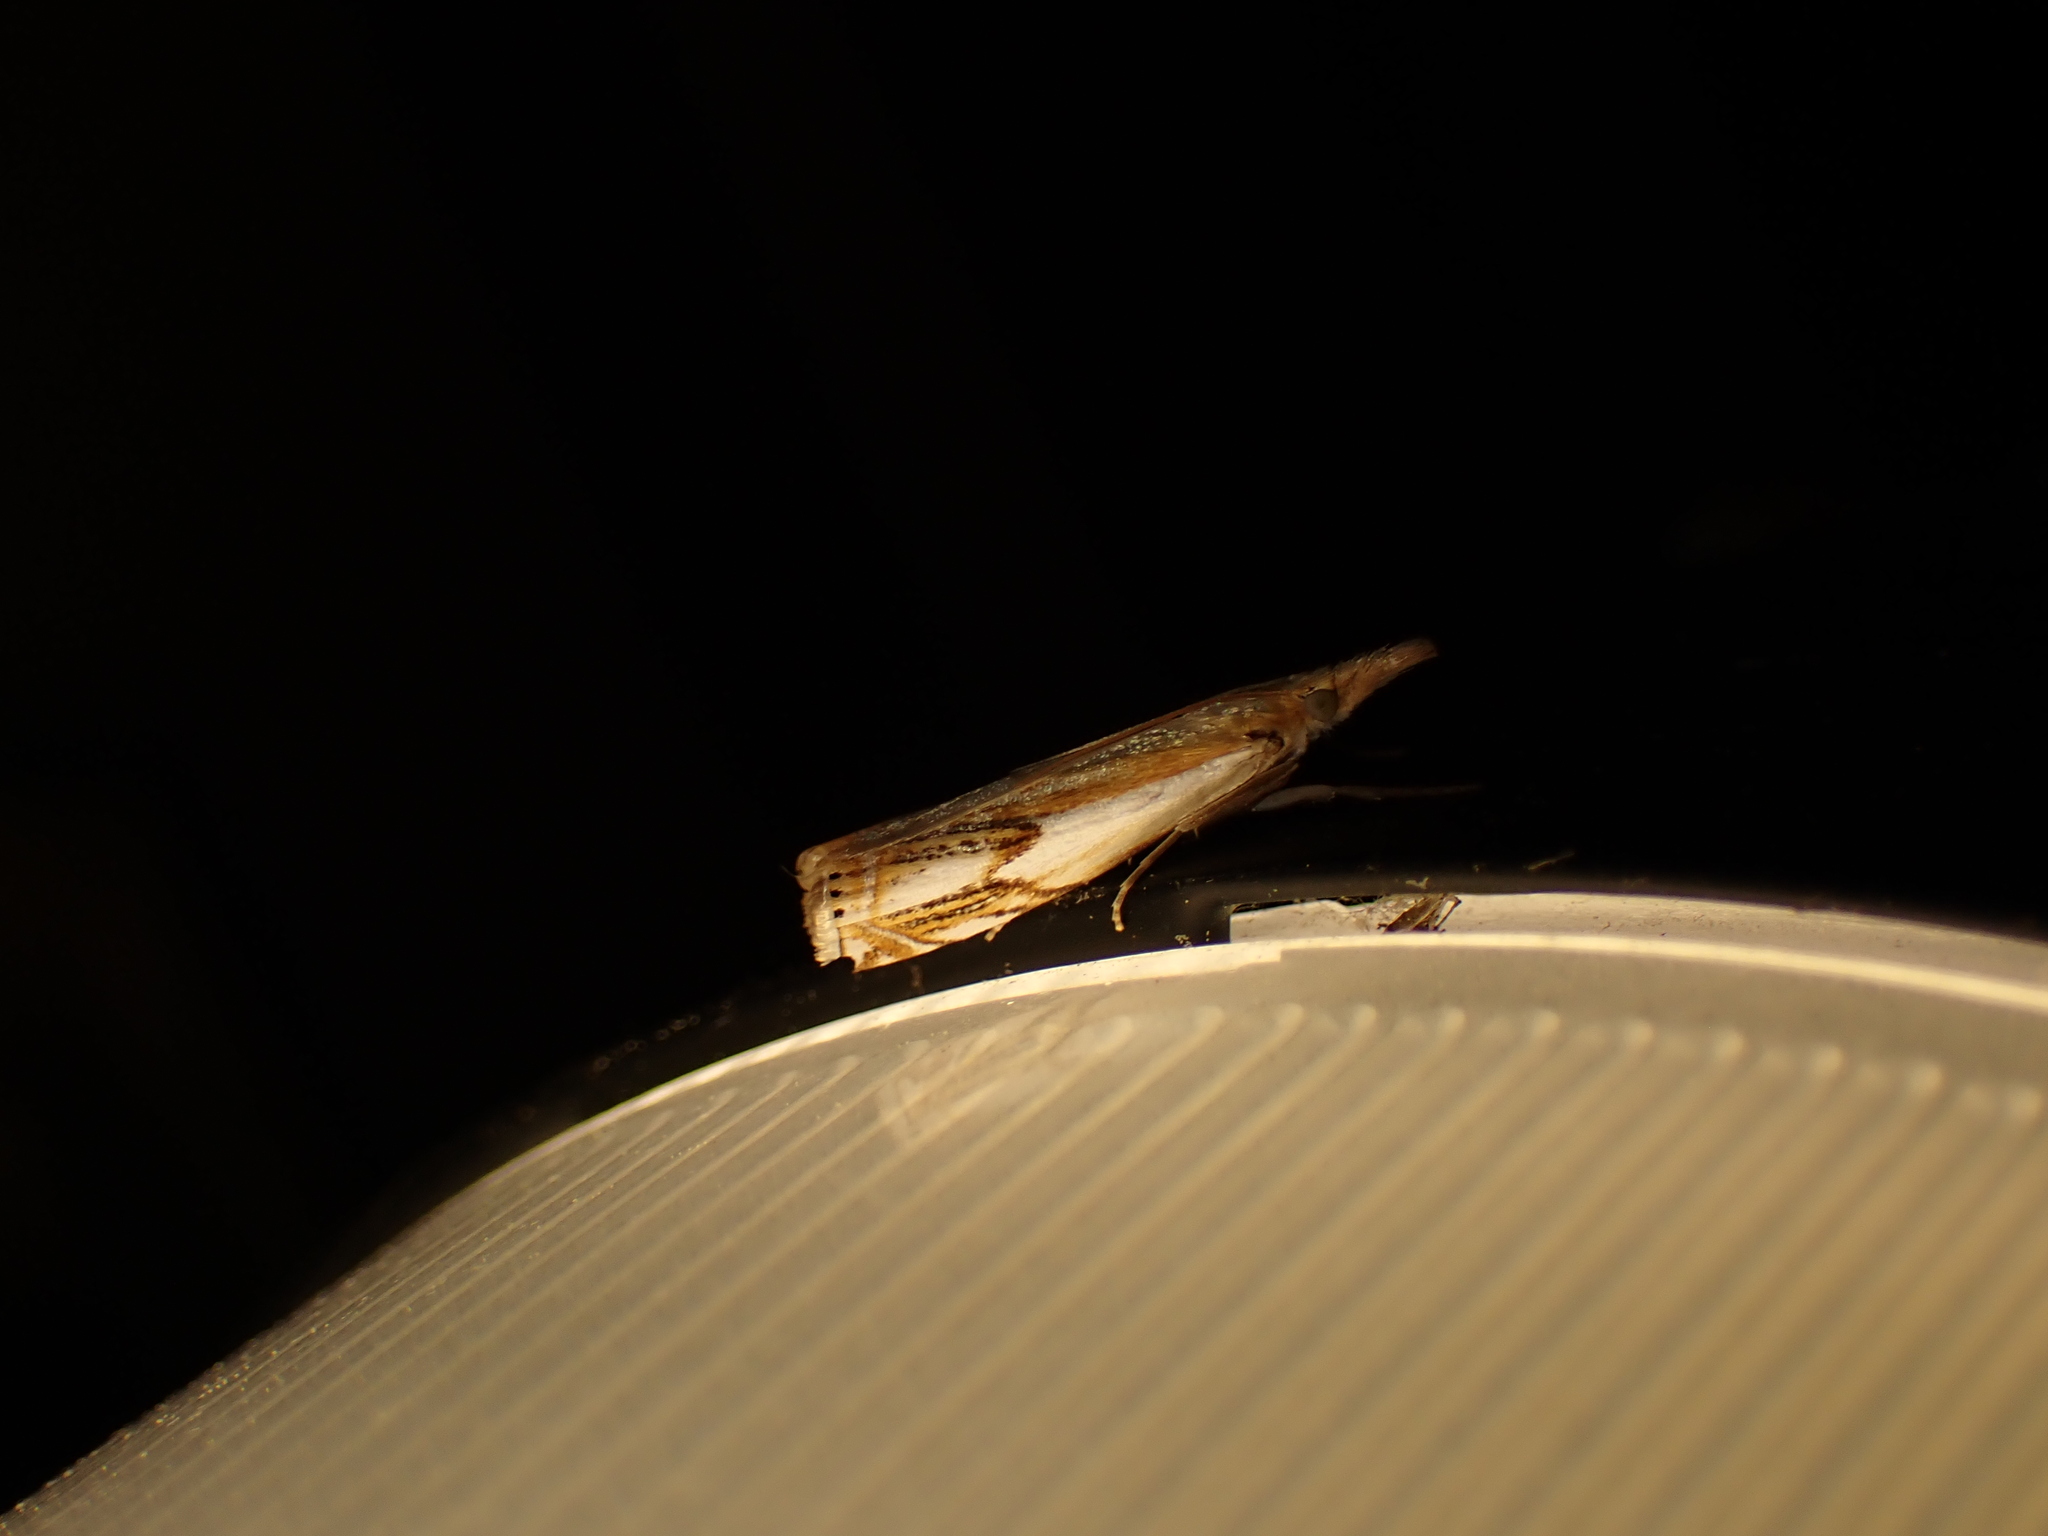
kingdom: Animalia
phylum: Arthropoda
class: Insecta
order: Lepidoptera
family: Crambidae
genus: Crambus
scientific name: Crambus agitatellus
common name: Double-banded grass-veneer
